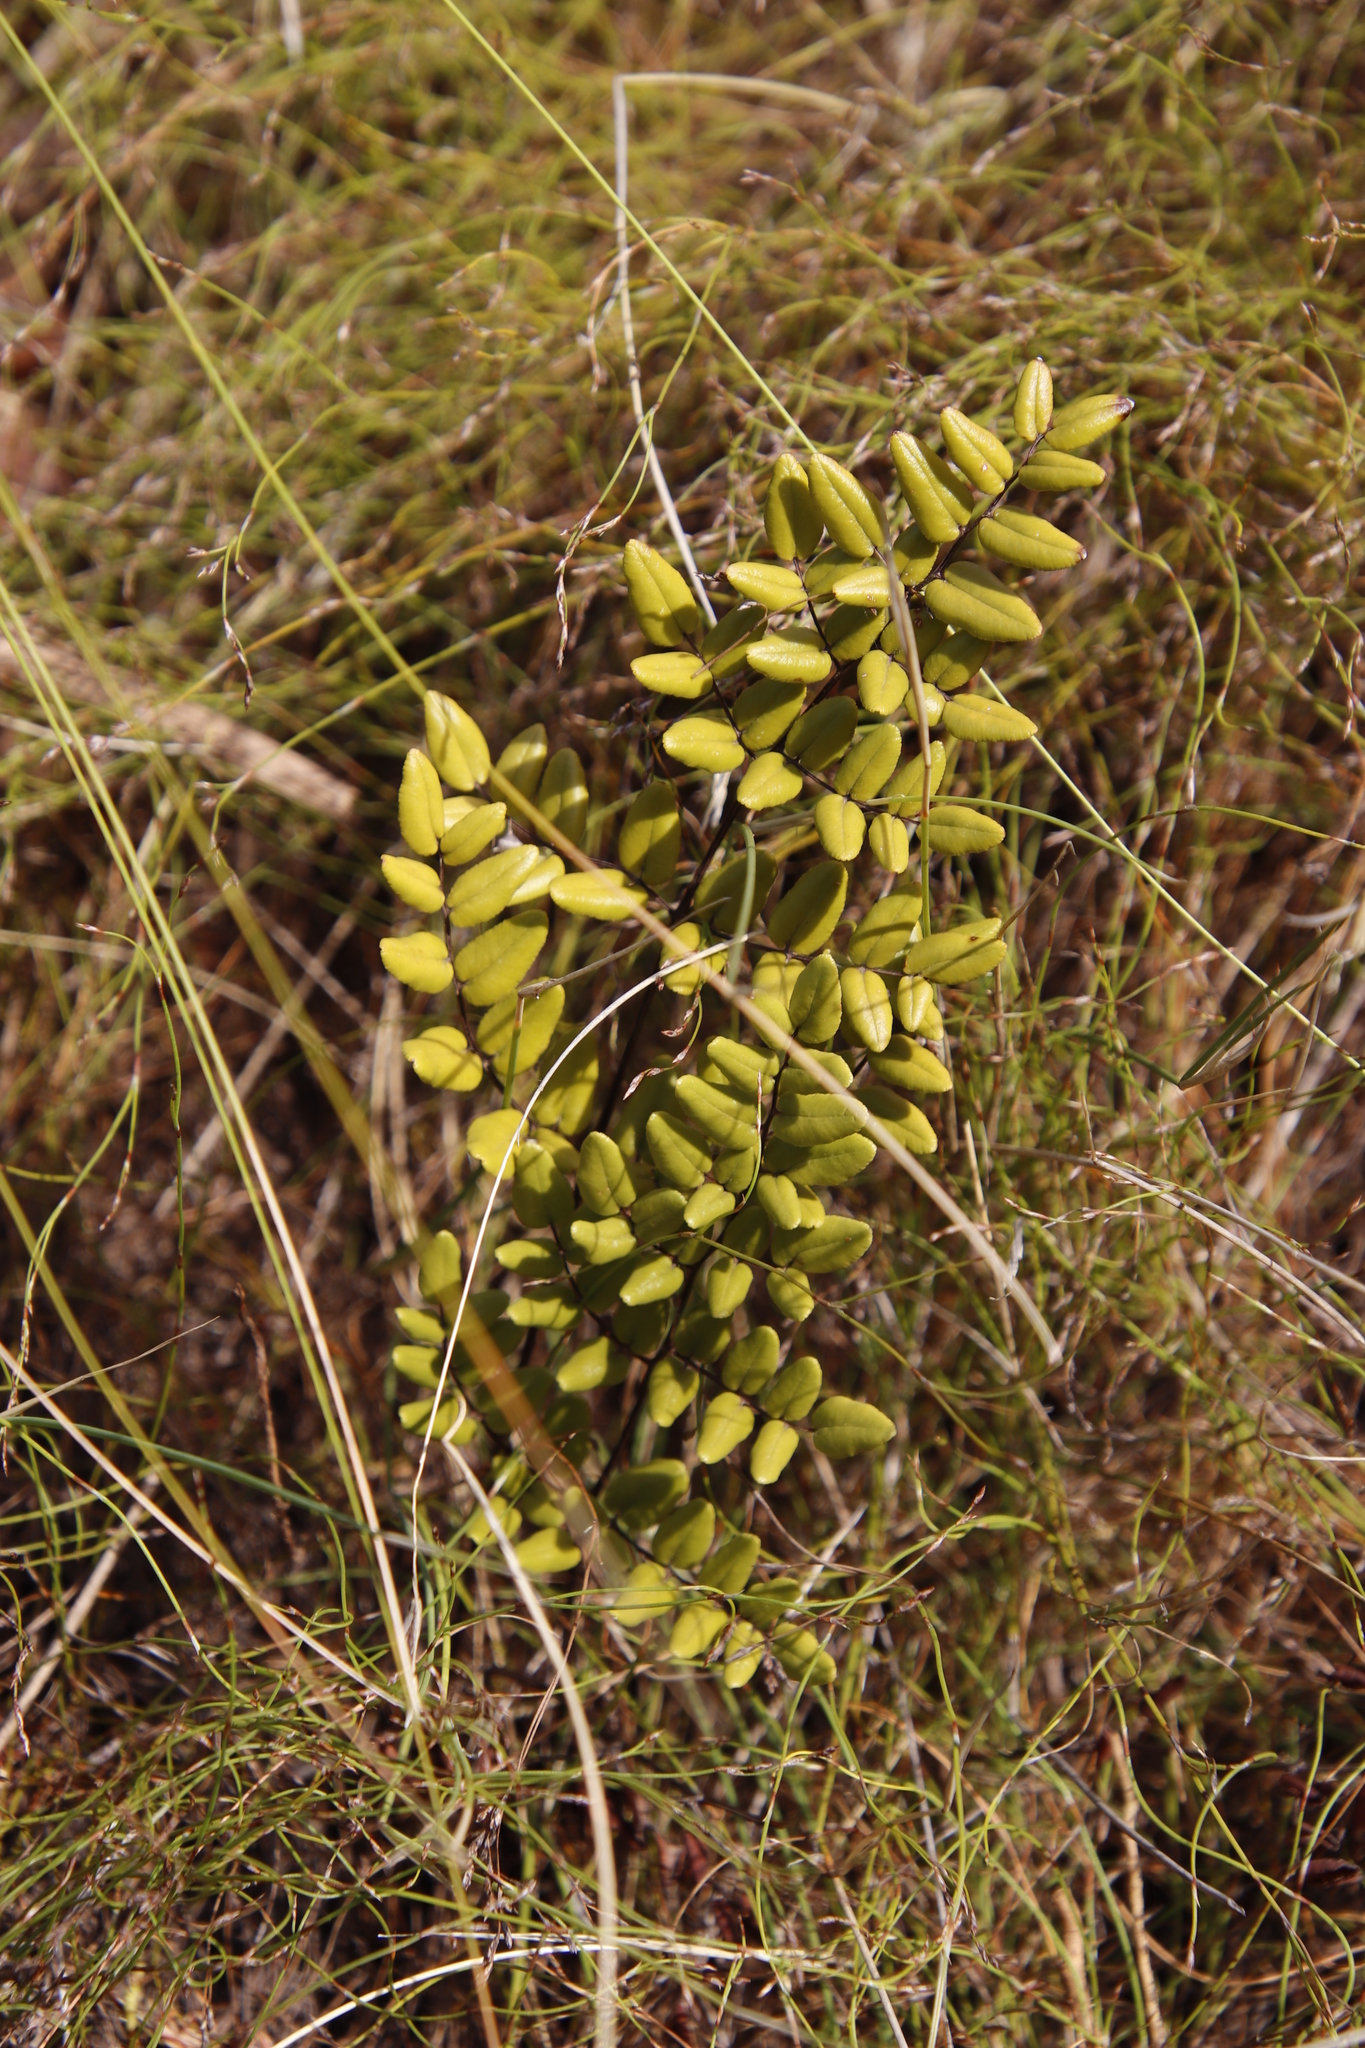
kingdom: Plantae
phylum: Tracheophyta
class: Polypodiopsida
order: Polypodiales
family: Pteridaceae
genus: Pellaea
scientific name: Pellaea pteroides
